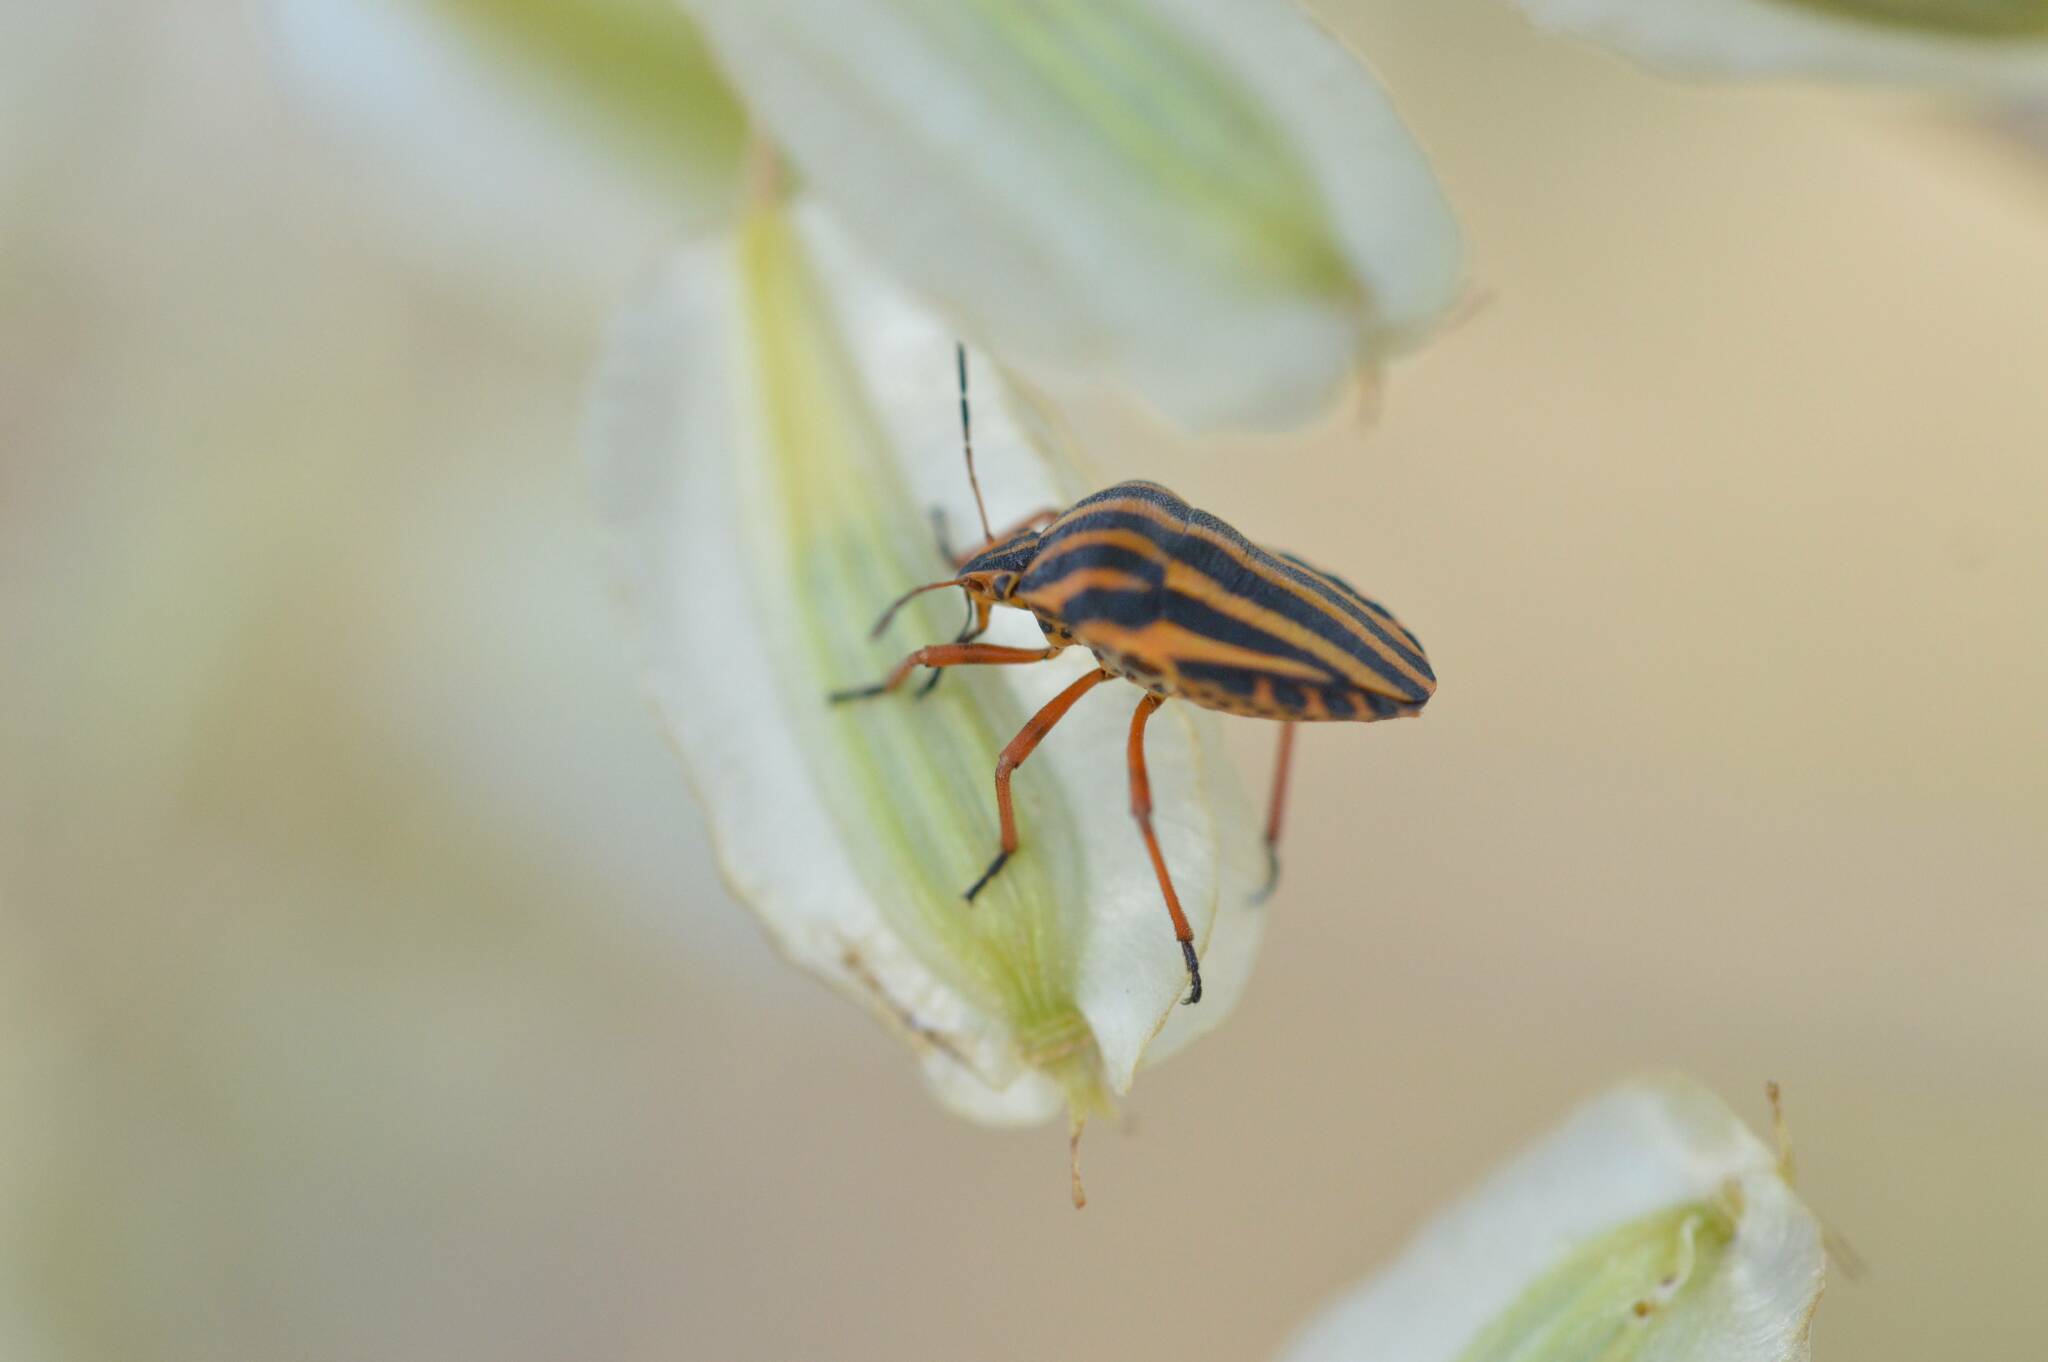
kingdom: Animalia
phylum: Arthropoda
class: Insecta
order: Hemiptera
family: Pentatomidae
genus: Graphosoma
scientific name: Graphosoma lineatum
